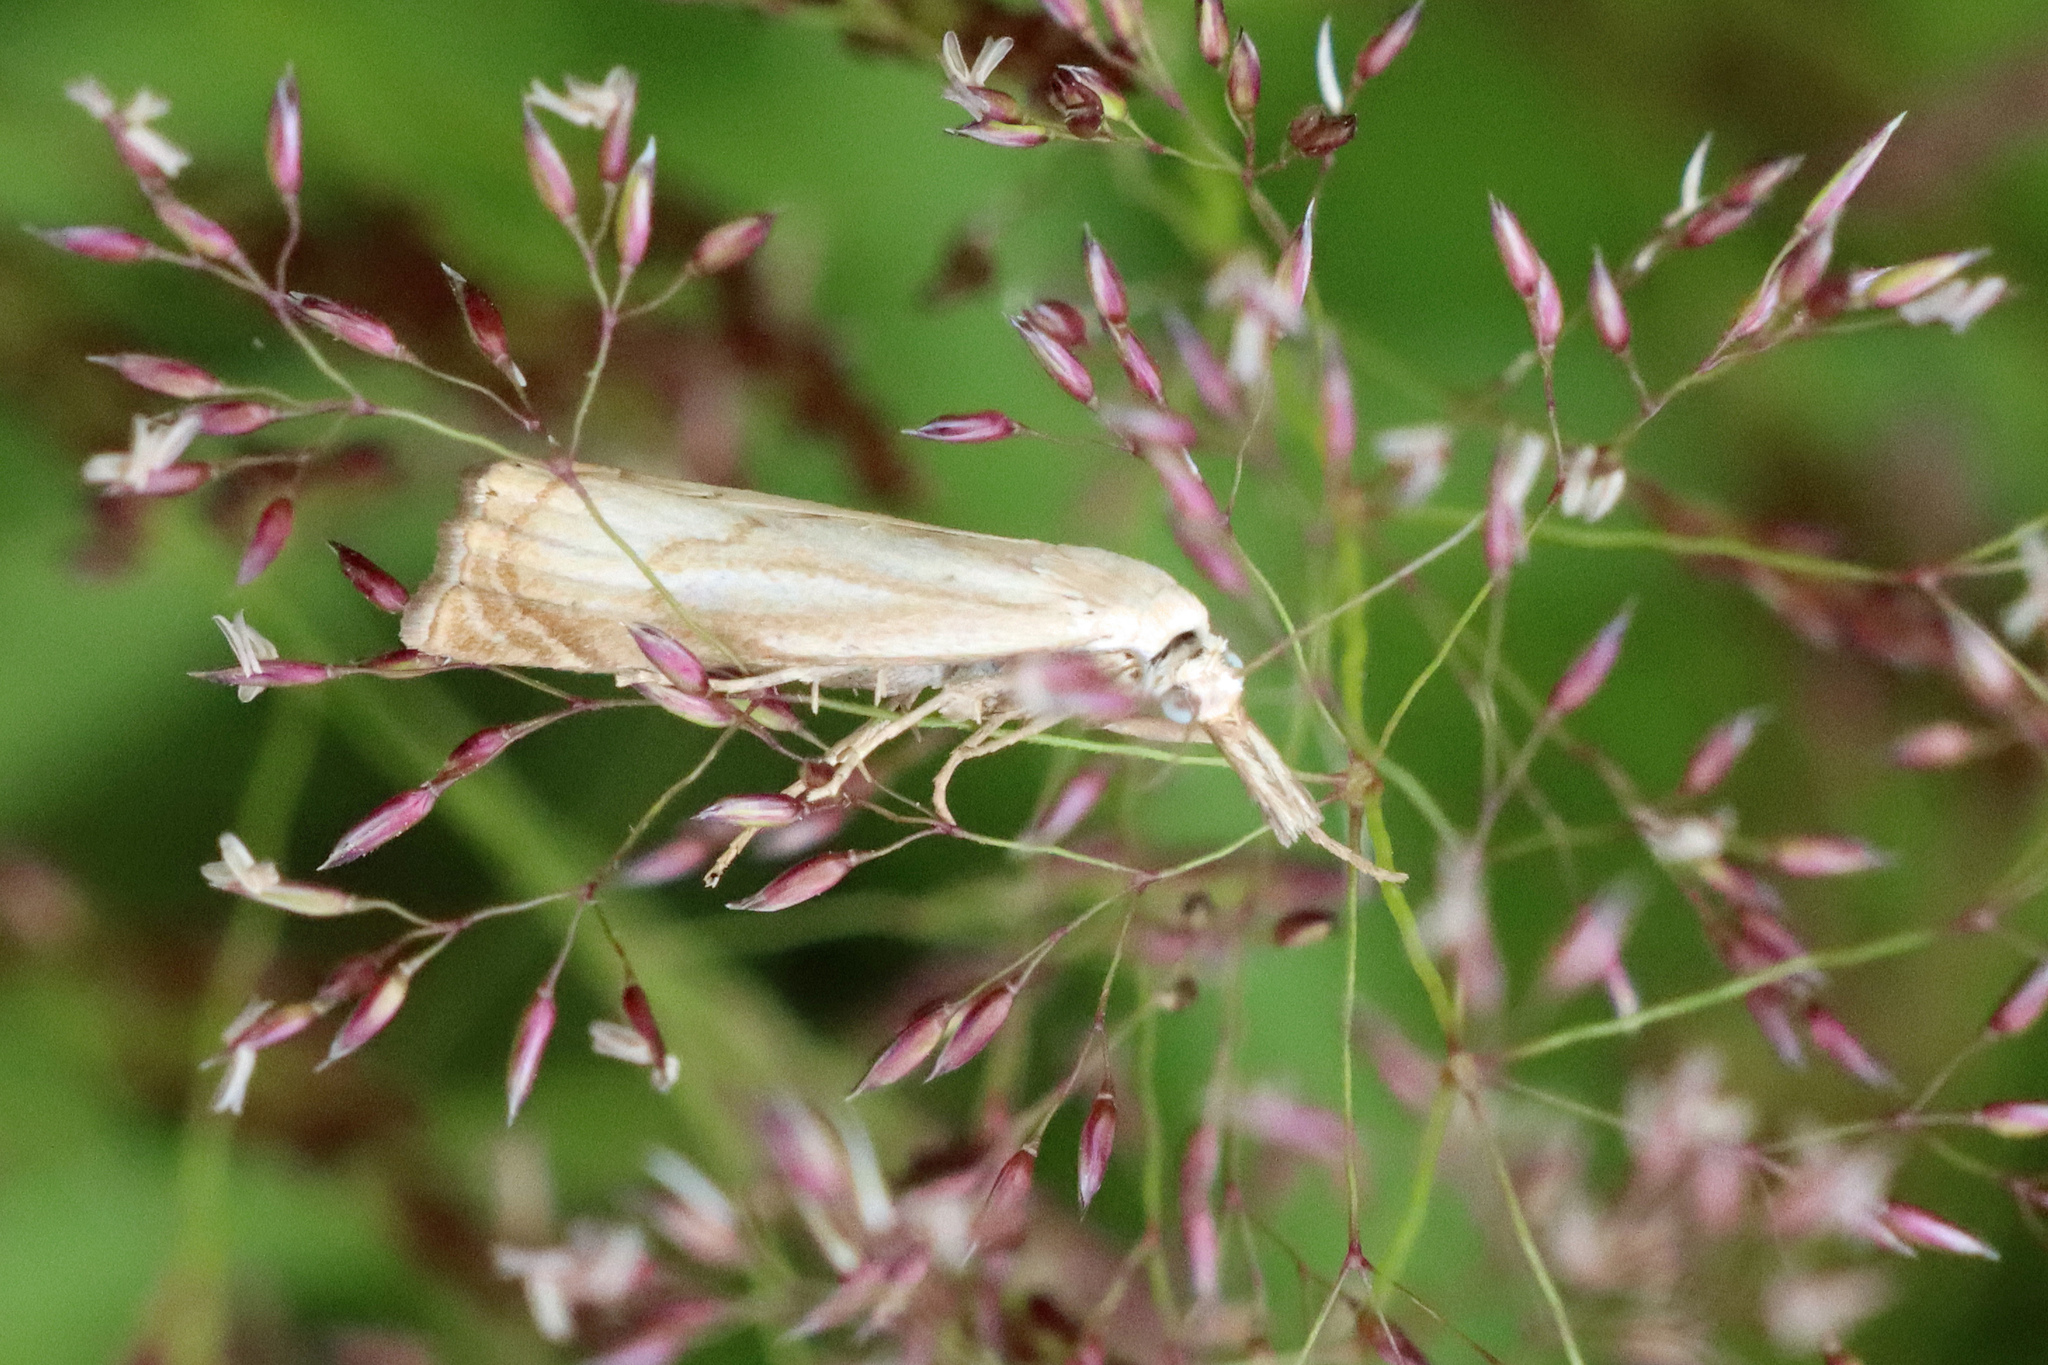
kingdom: Animalia
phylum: Arthropoda
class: Insecta
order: Lepidoptera
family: Crambidae
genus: Chrysoteuchia
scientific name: Chrysoteuchia culmella
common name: Garden grass-veneer
